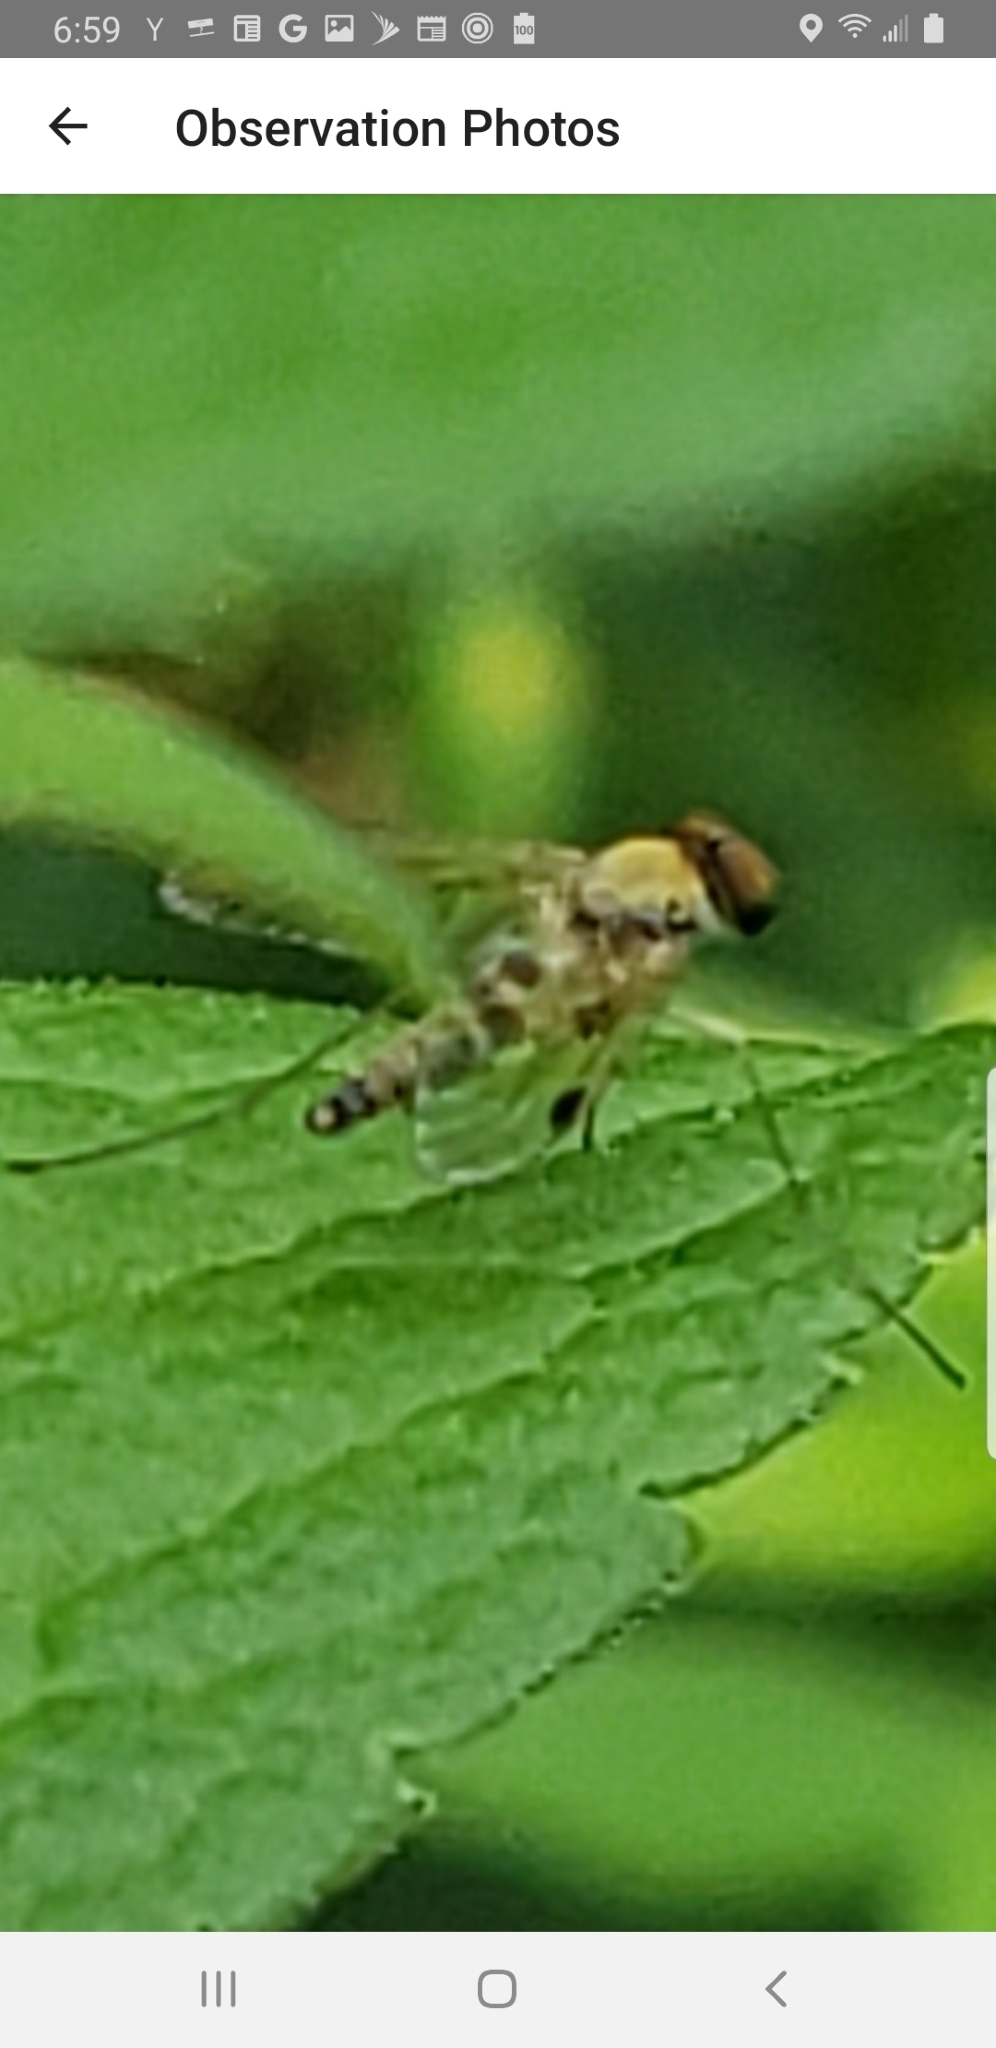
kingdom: Animalia
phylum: Arthropoda
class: Insecta
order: Diptera
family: Rhagionidae
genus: Chrysopilus
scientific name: Chrysopilus modestus
